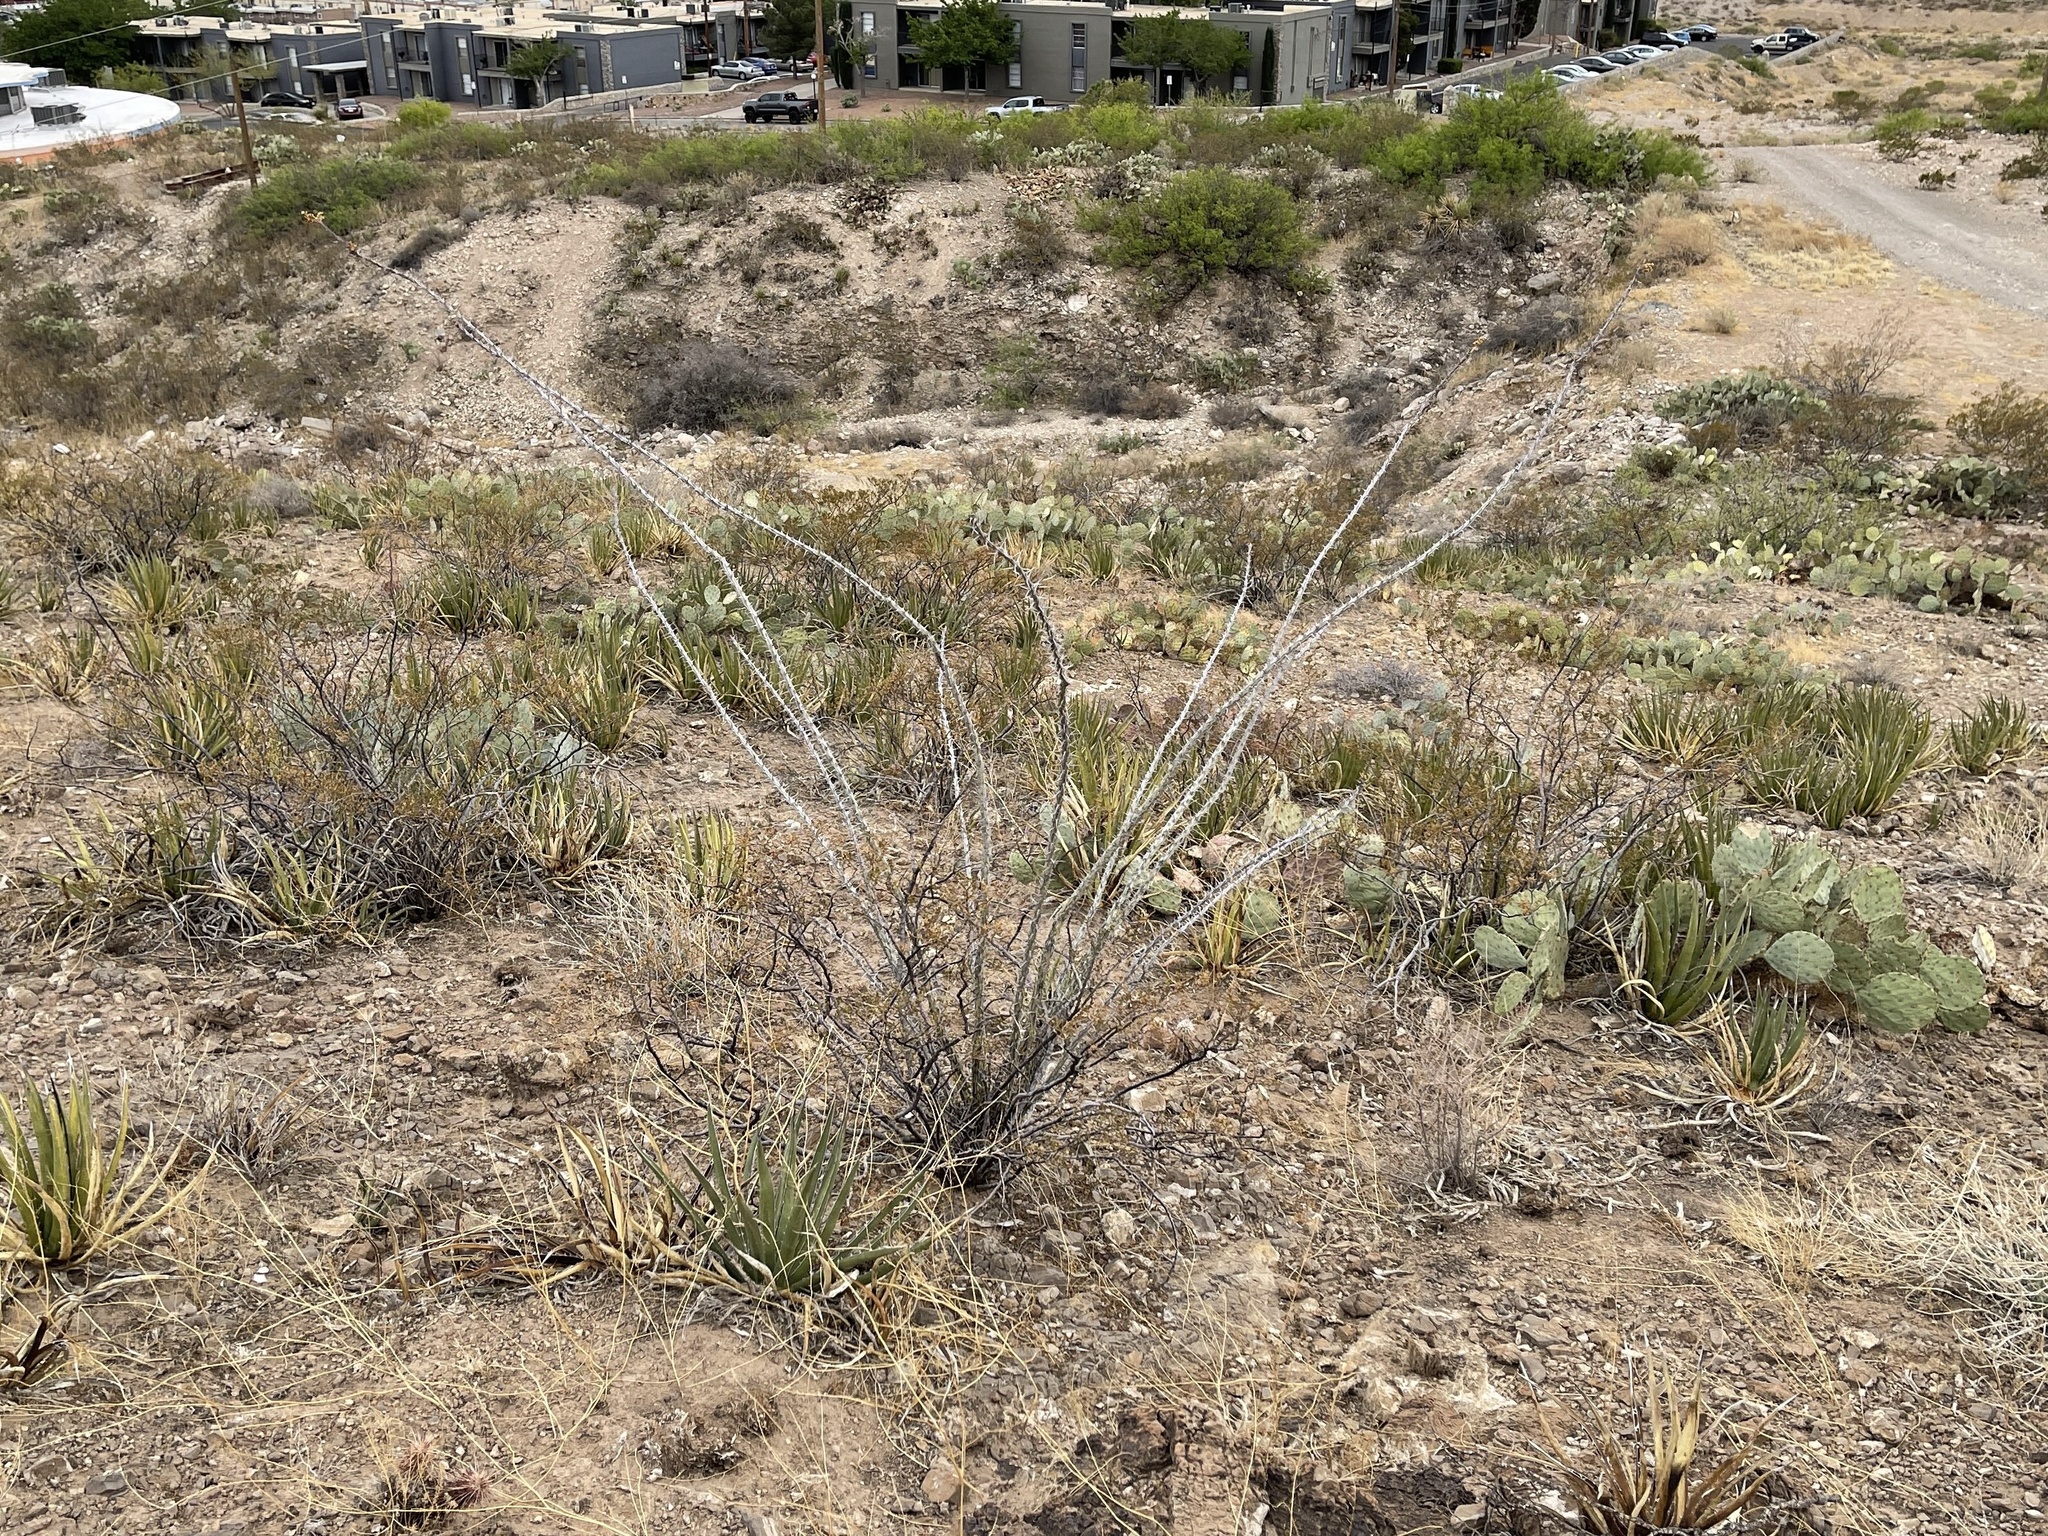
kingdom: Plantae
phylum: Tracheophyta
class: Magnoliopsida
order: Ericales
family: Fouquieriaceae
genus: Fouquieria
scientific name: Fouquieria splendens
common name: Vine-cactus
